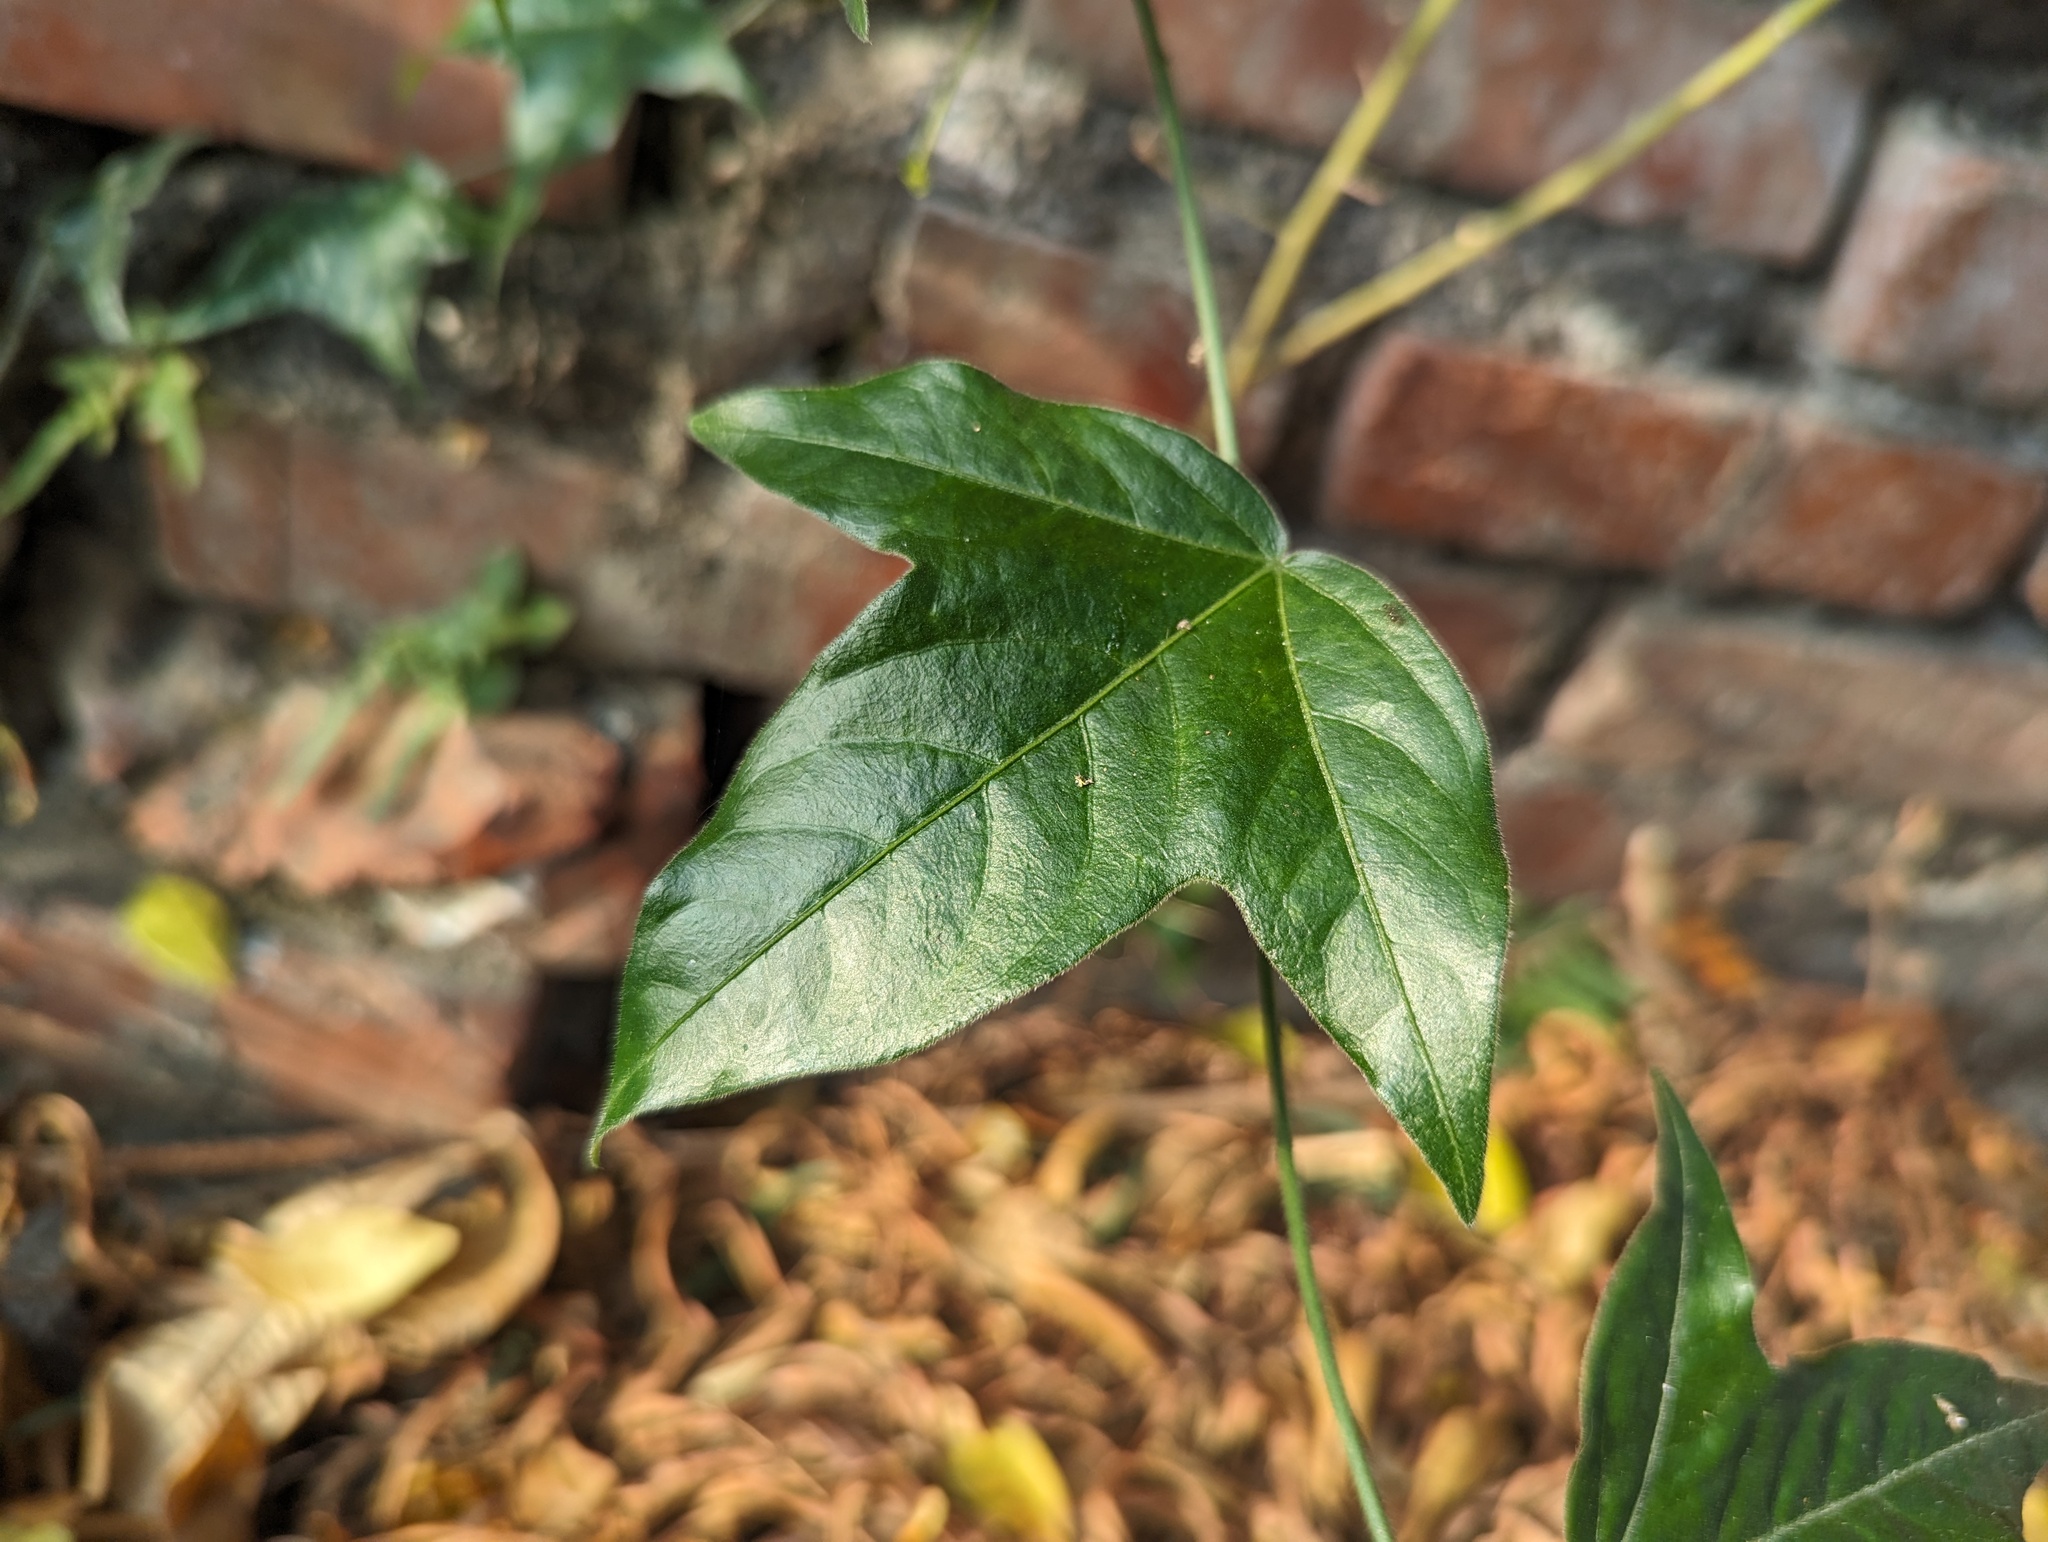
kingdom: Plantae
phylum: Tracheophyta
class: Magnoliopsida
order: Malpighiales
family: Passifloraceae
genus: Passiflora
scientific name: Passiflora suberosa
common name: Wild passionfruit
